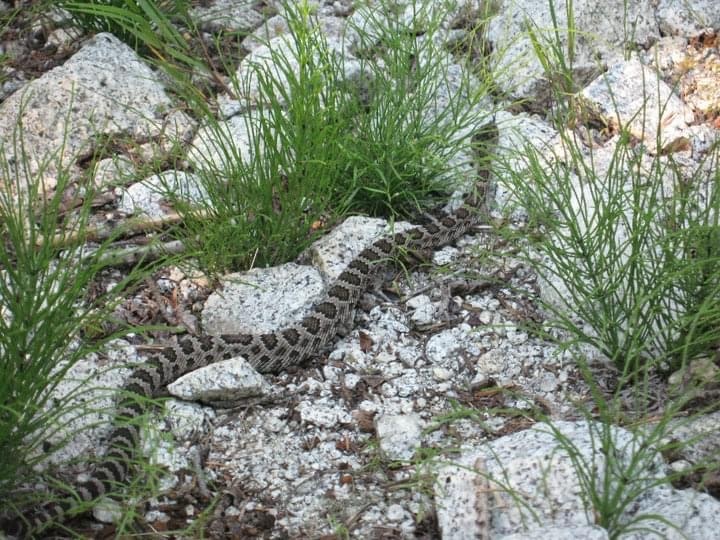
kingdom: Animalia
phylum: Chordata
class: Squamata
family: Viperidae
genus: Crotalus
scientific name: Crotalus oreganus
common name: Abyssus
